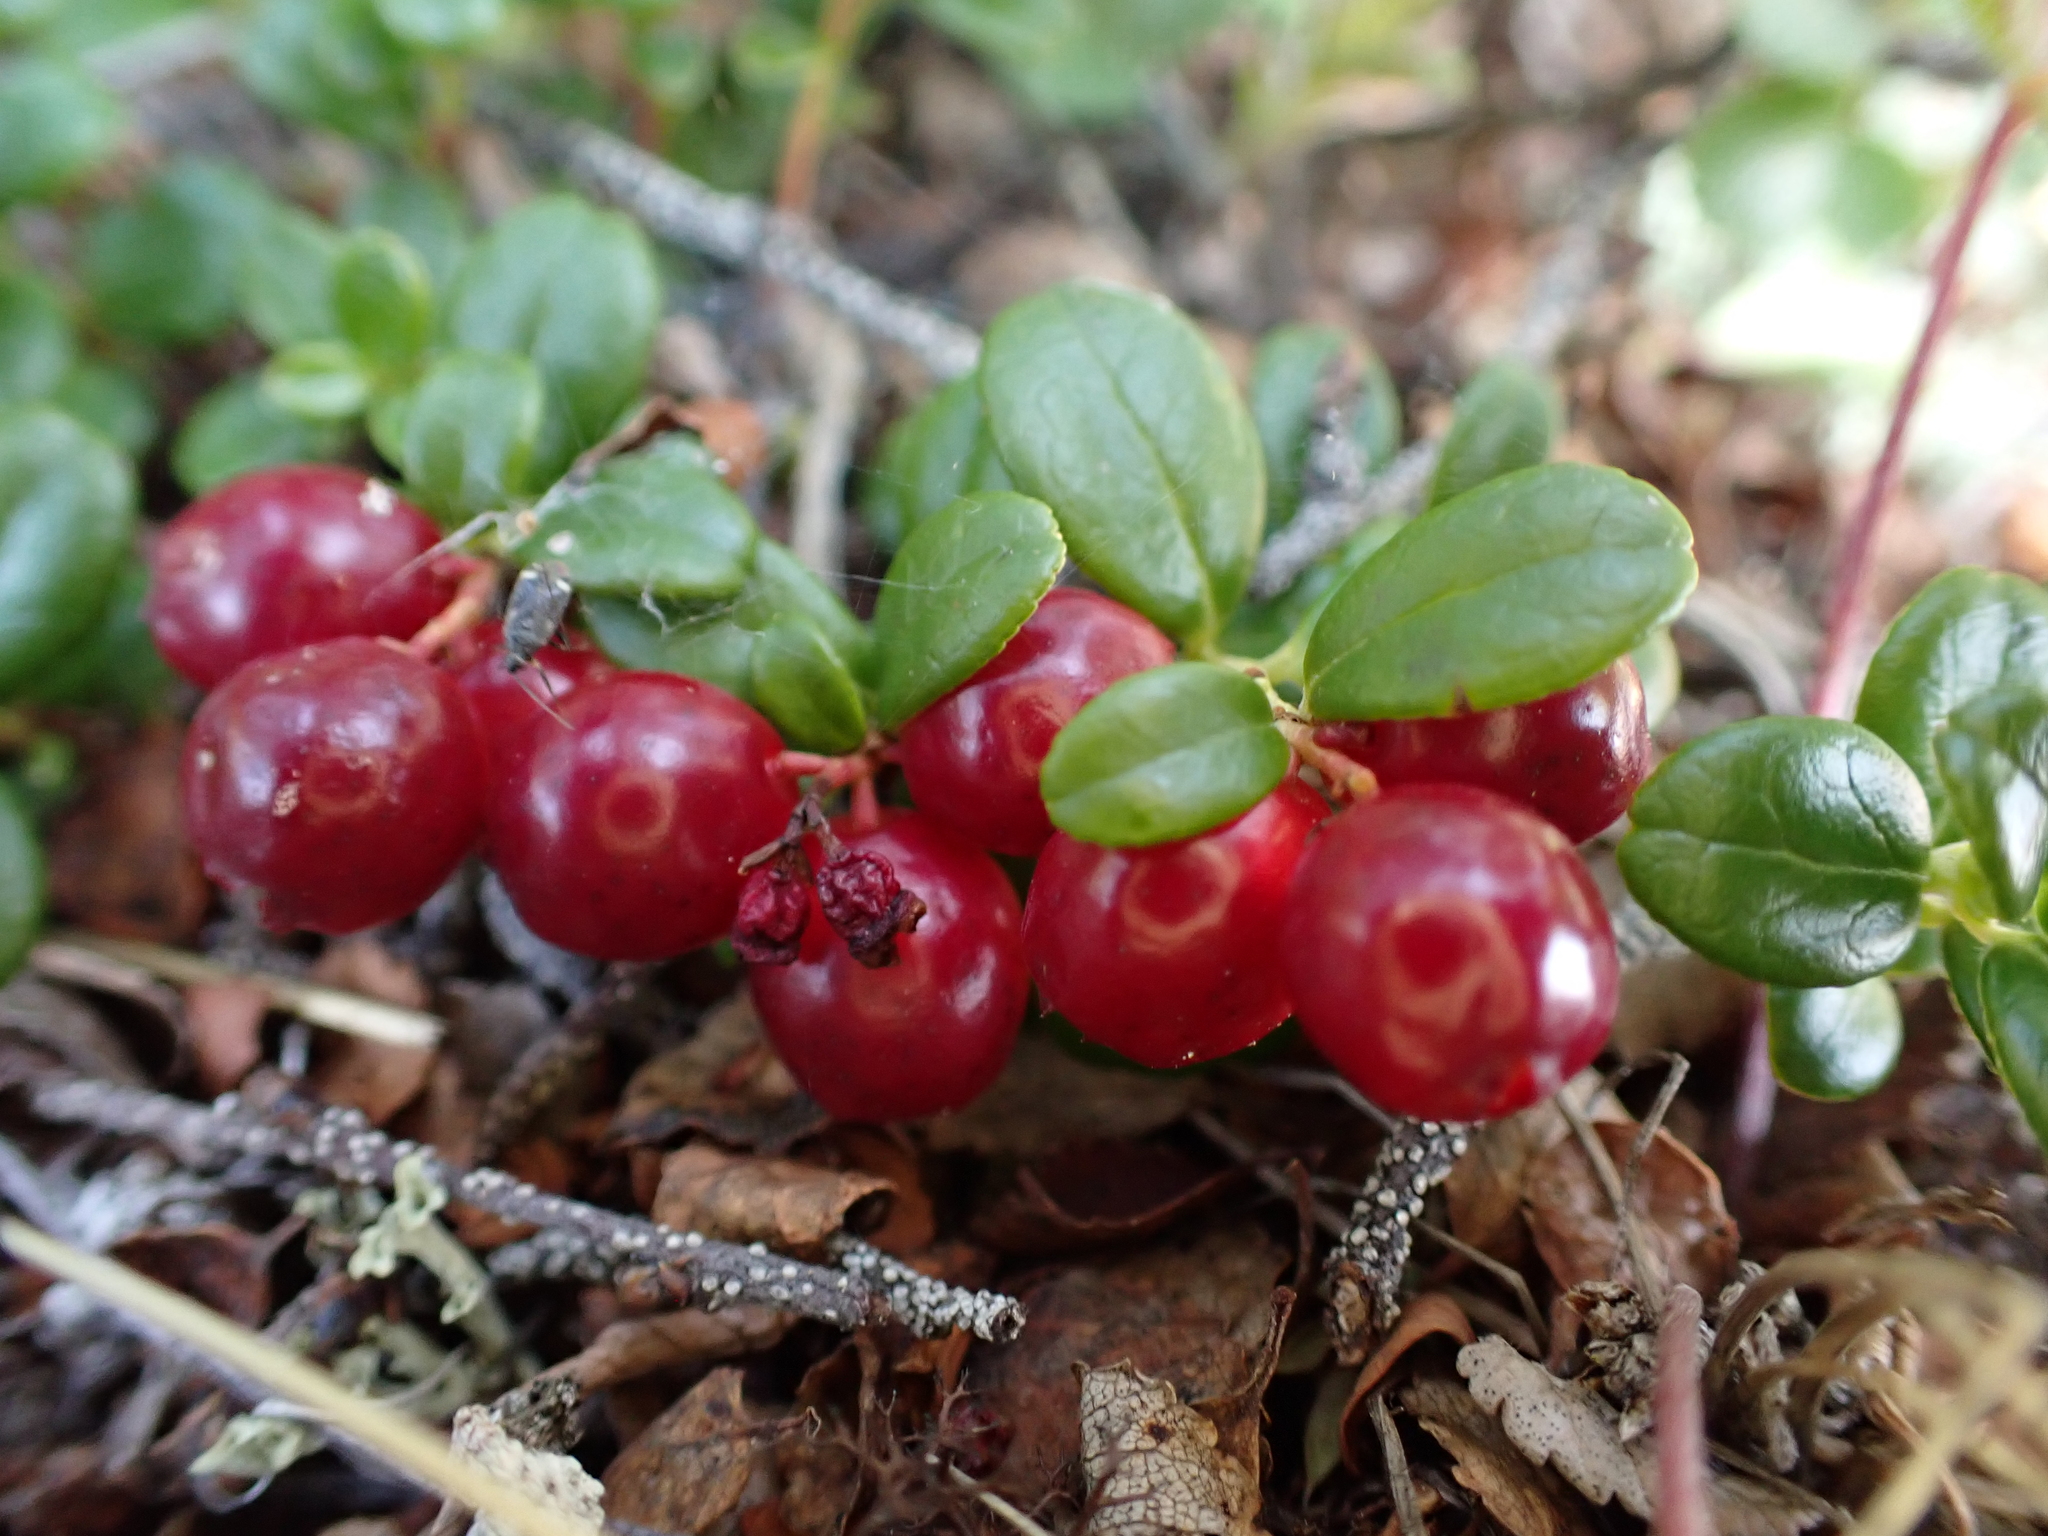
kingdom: Plantae
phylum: Tracheophyta
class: Magnoliopsida
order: Ericales
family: Ericaceae
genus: Vaccinium
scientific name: Vaccinium vitis-idaea
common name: Cowberry
